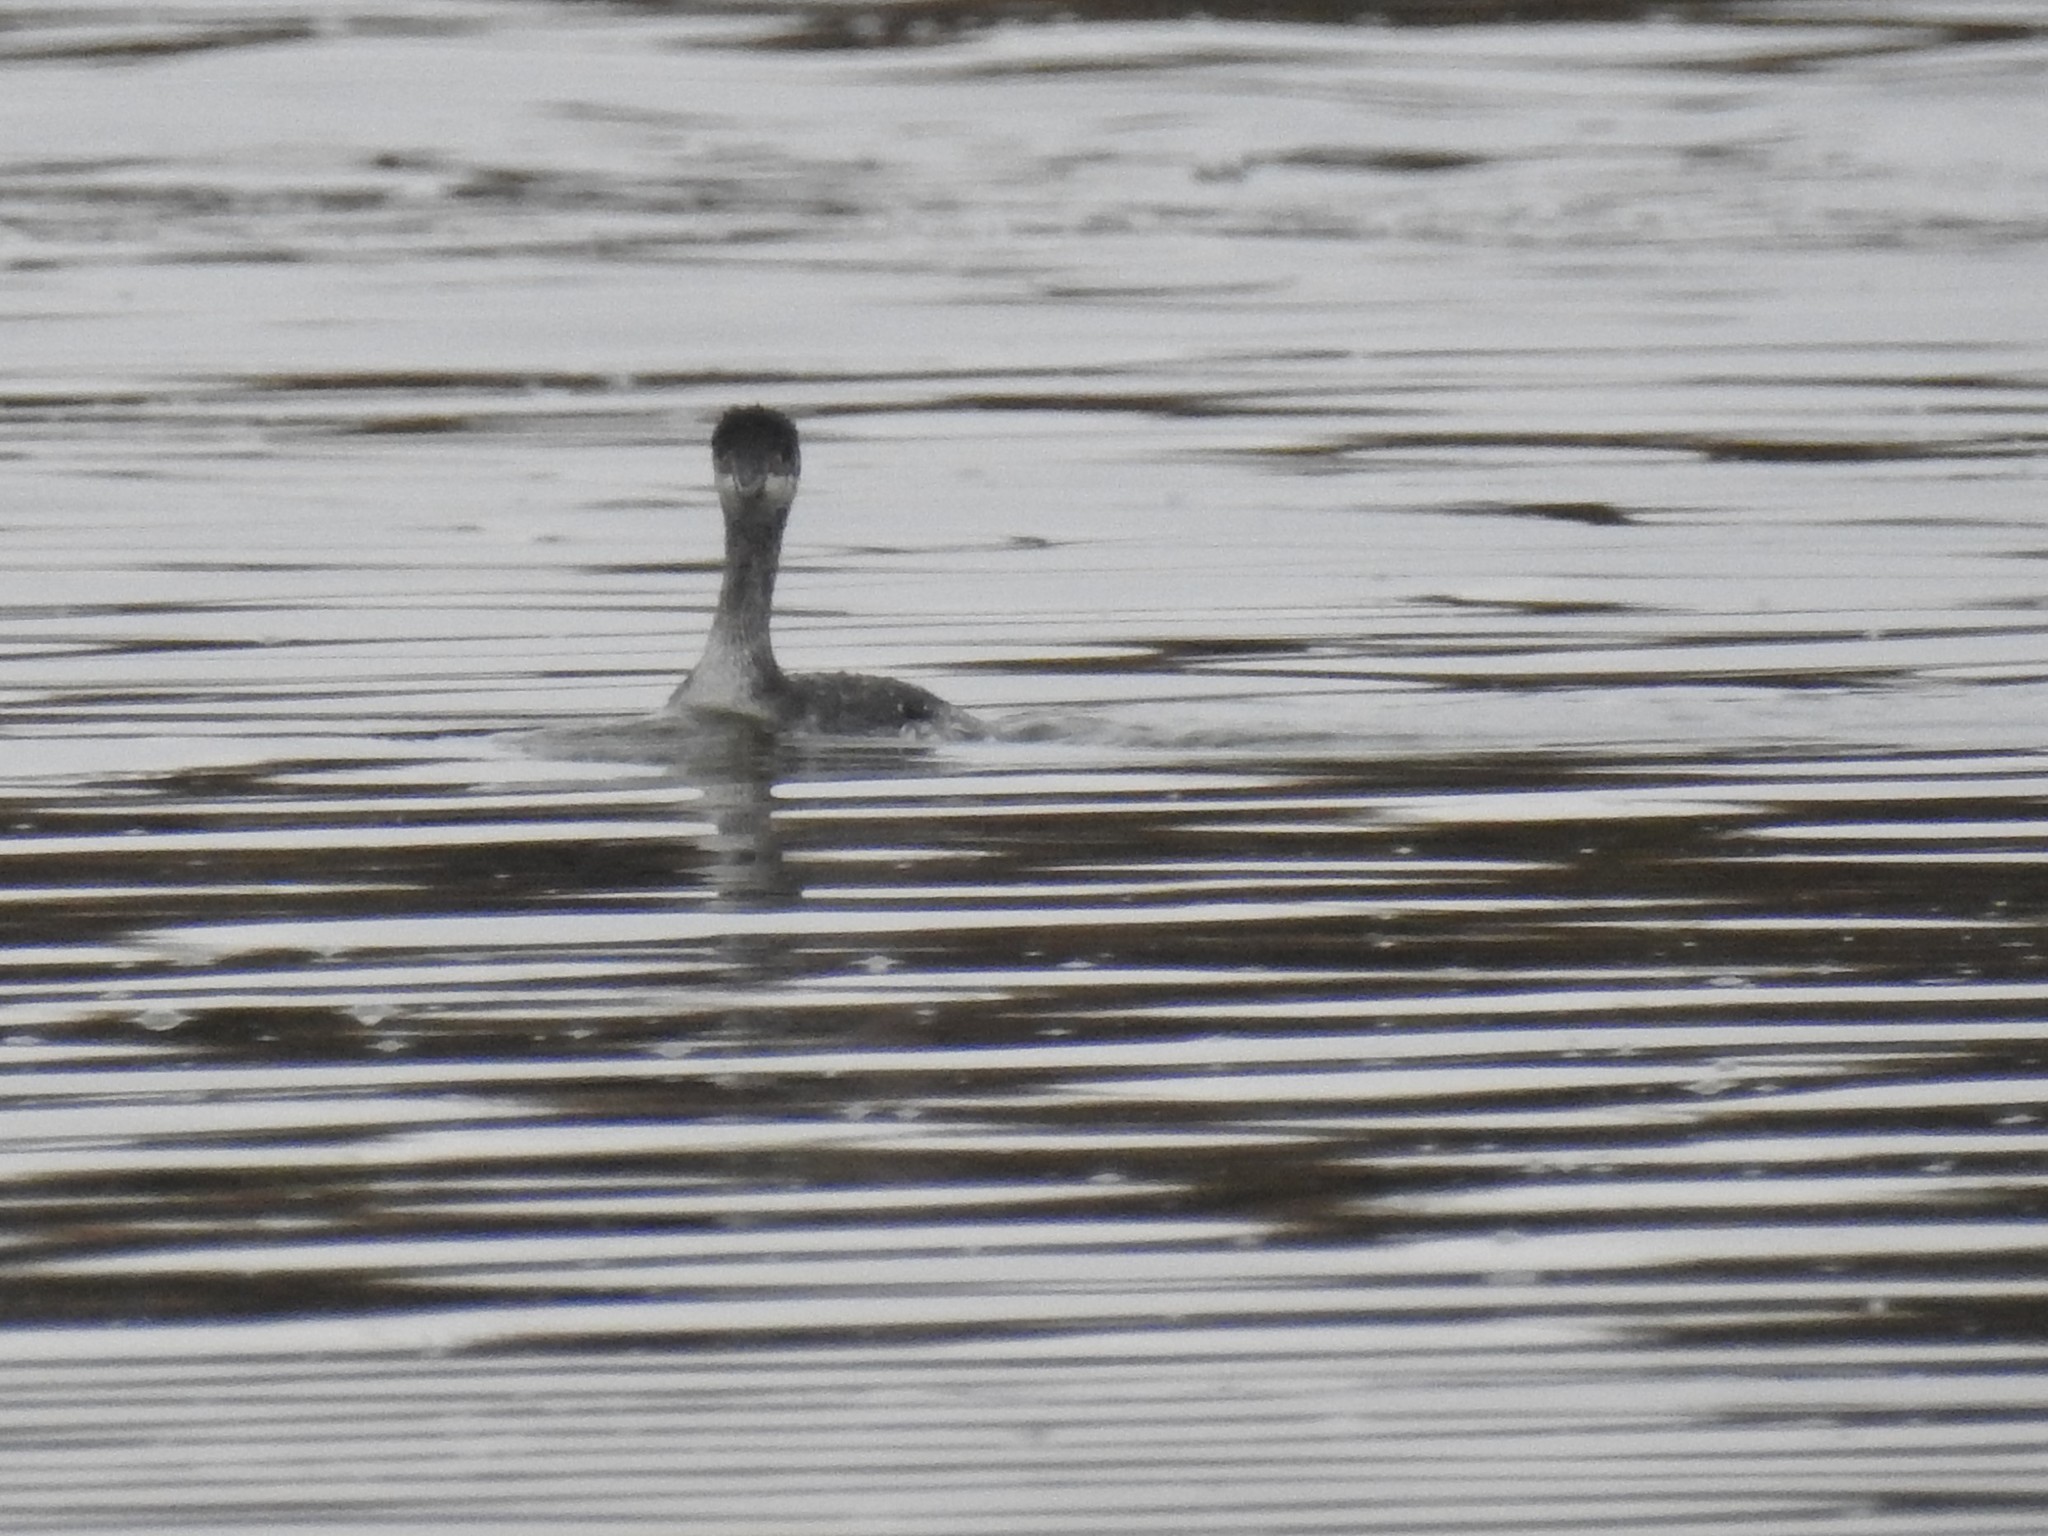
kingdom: Animalia
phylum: Chordata
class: Aves
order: Podicipediformes
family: Podicipedidae
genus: Podiceps
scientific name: Podiceps nigricollis
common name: Black-necked grebe
